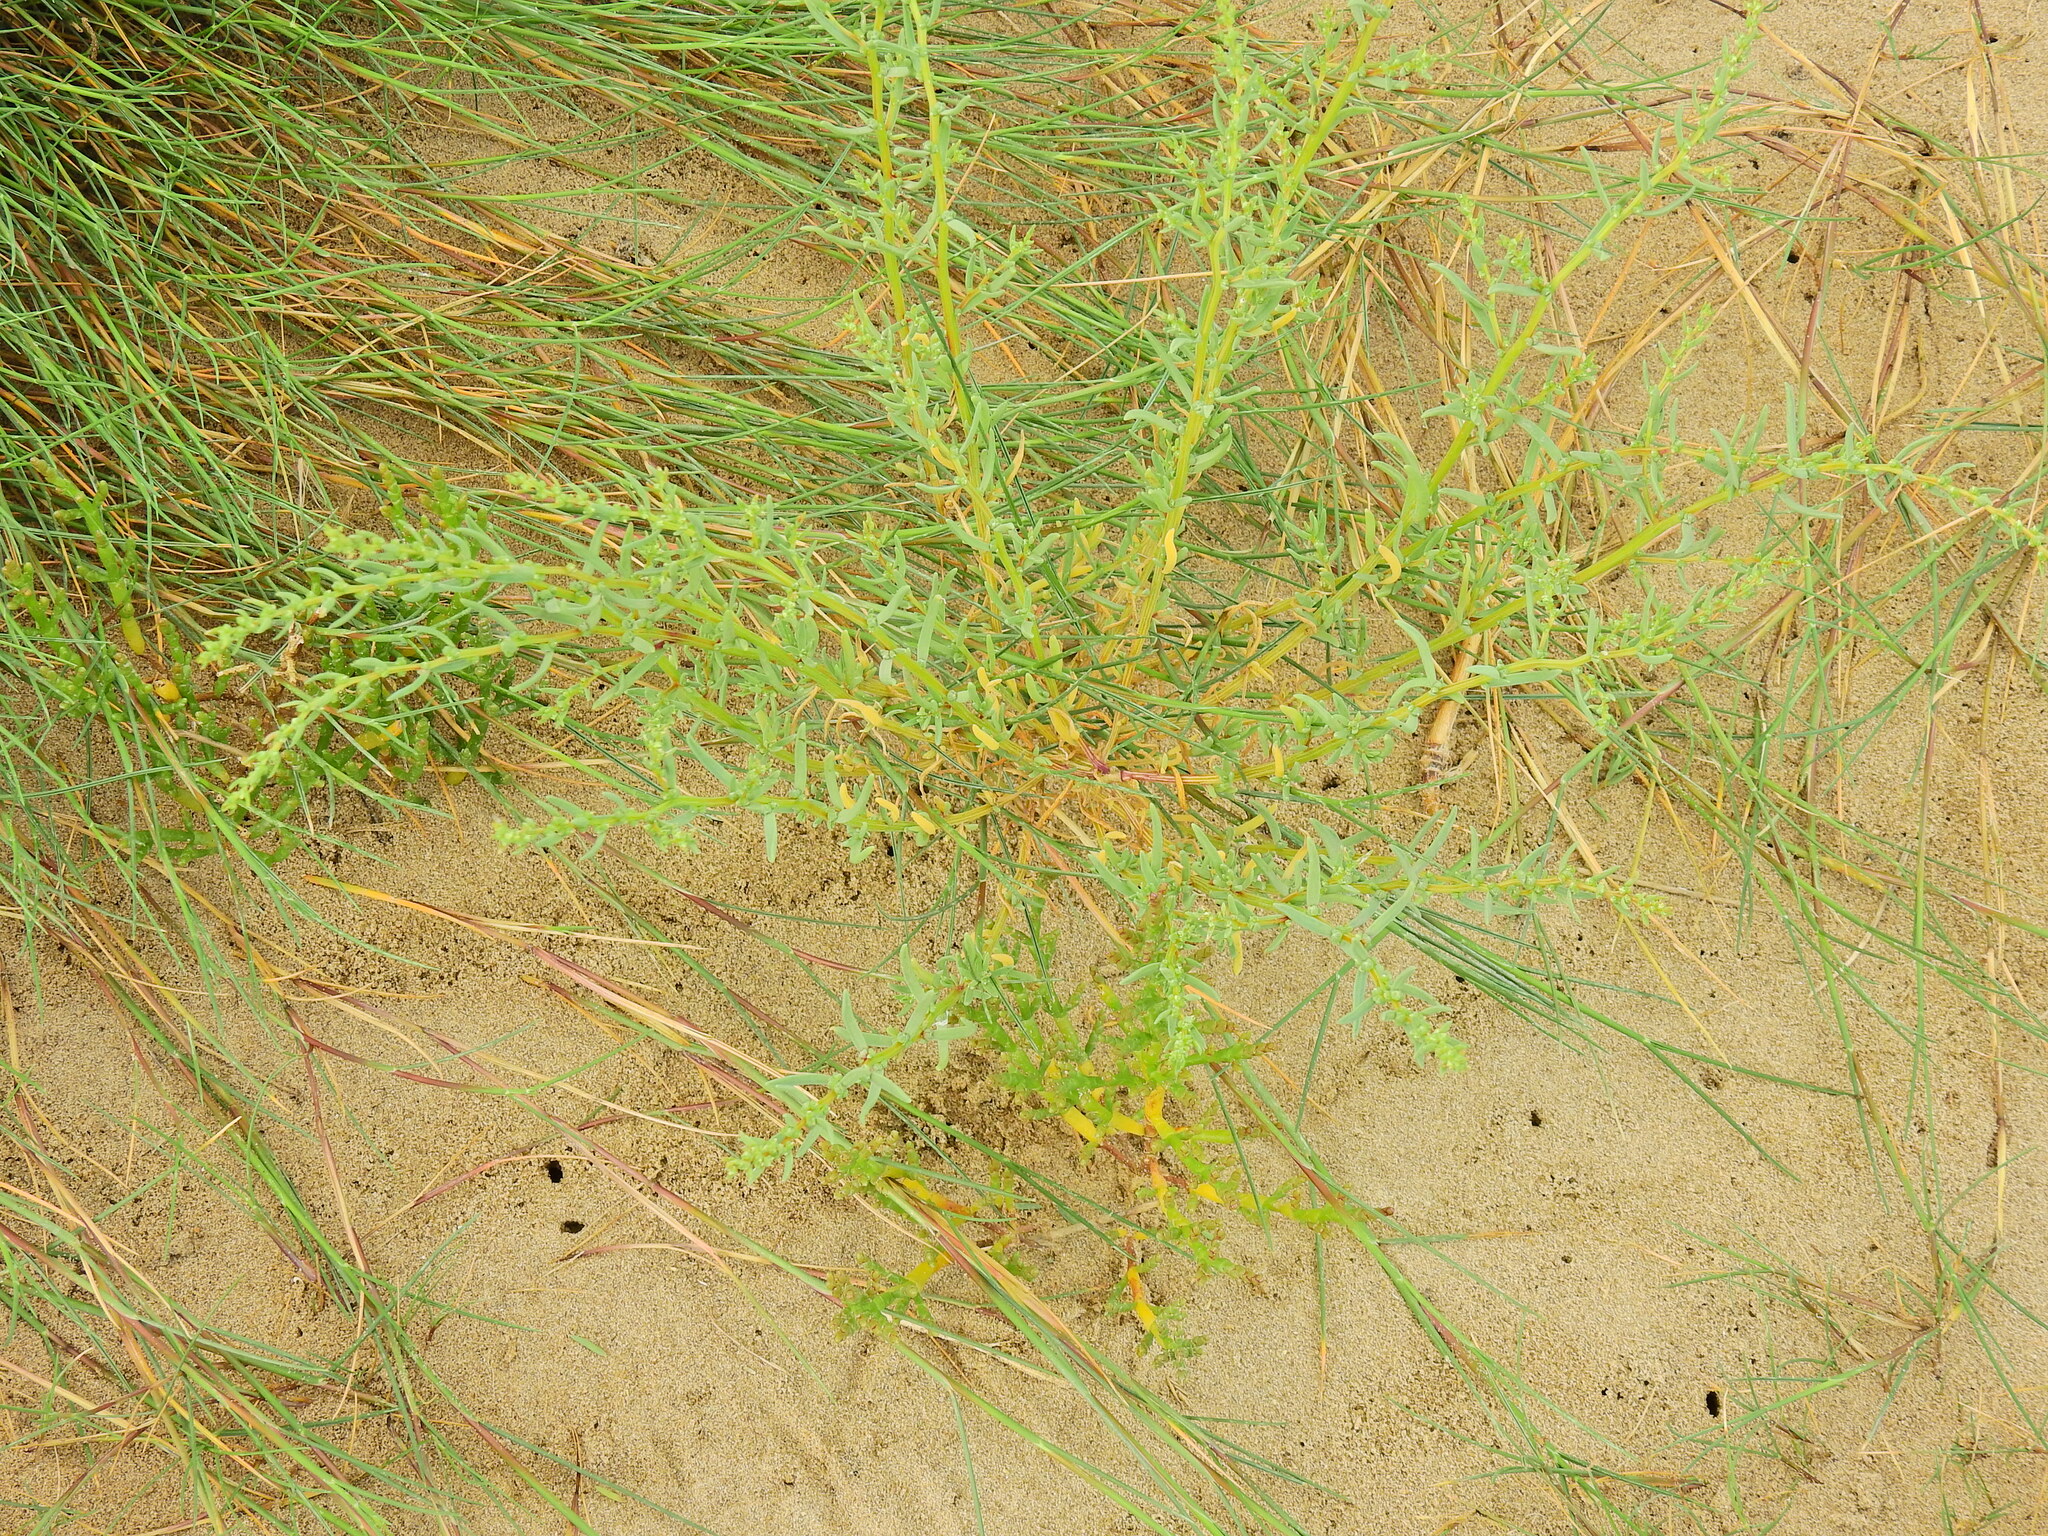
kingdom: Plantae
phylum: Tracheophyta
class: Magnoliopsida
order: Caryophyllales
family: Amaranthaceae
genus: Suaeda
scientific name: Suaeda maritima
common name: Annual sea-blite
